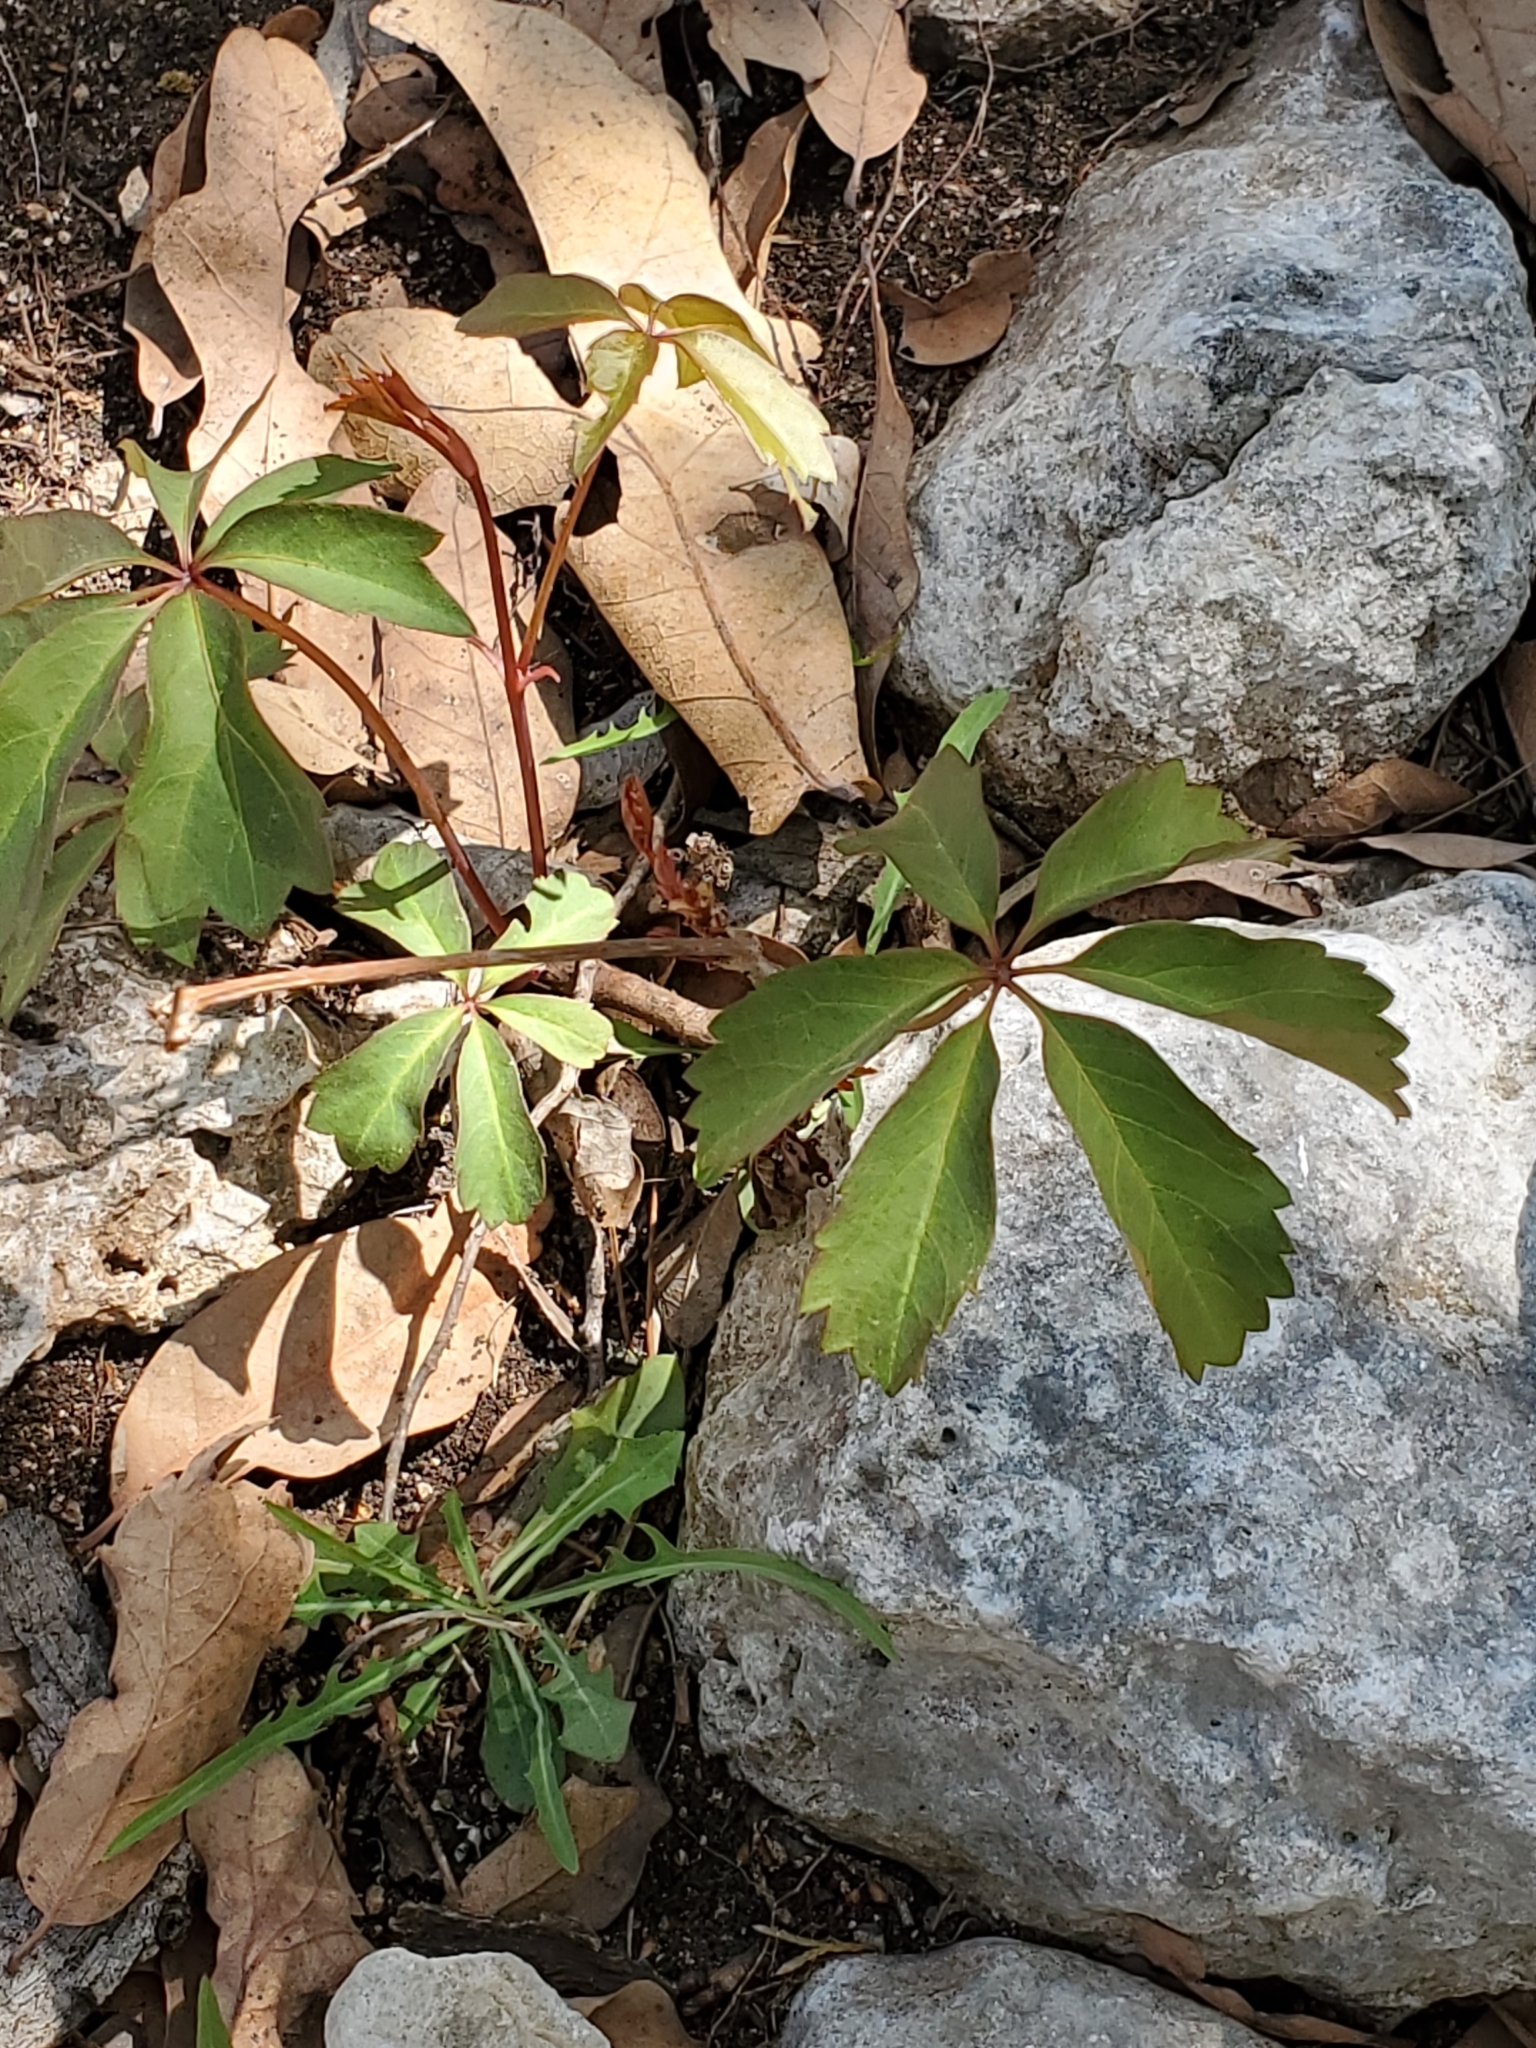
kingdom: Plantae
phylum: Tracheophyta
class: Magnoliopsida
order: Vitales
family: Vitaceae
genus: Parthenocissus
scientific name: Parthenocissus heptaphylla
